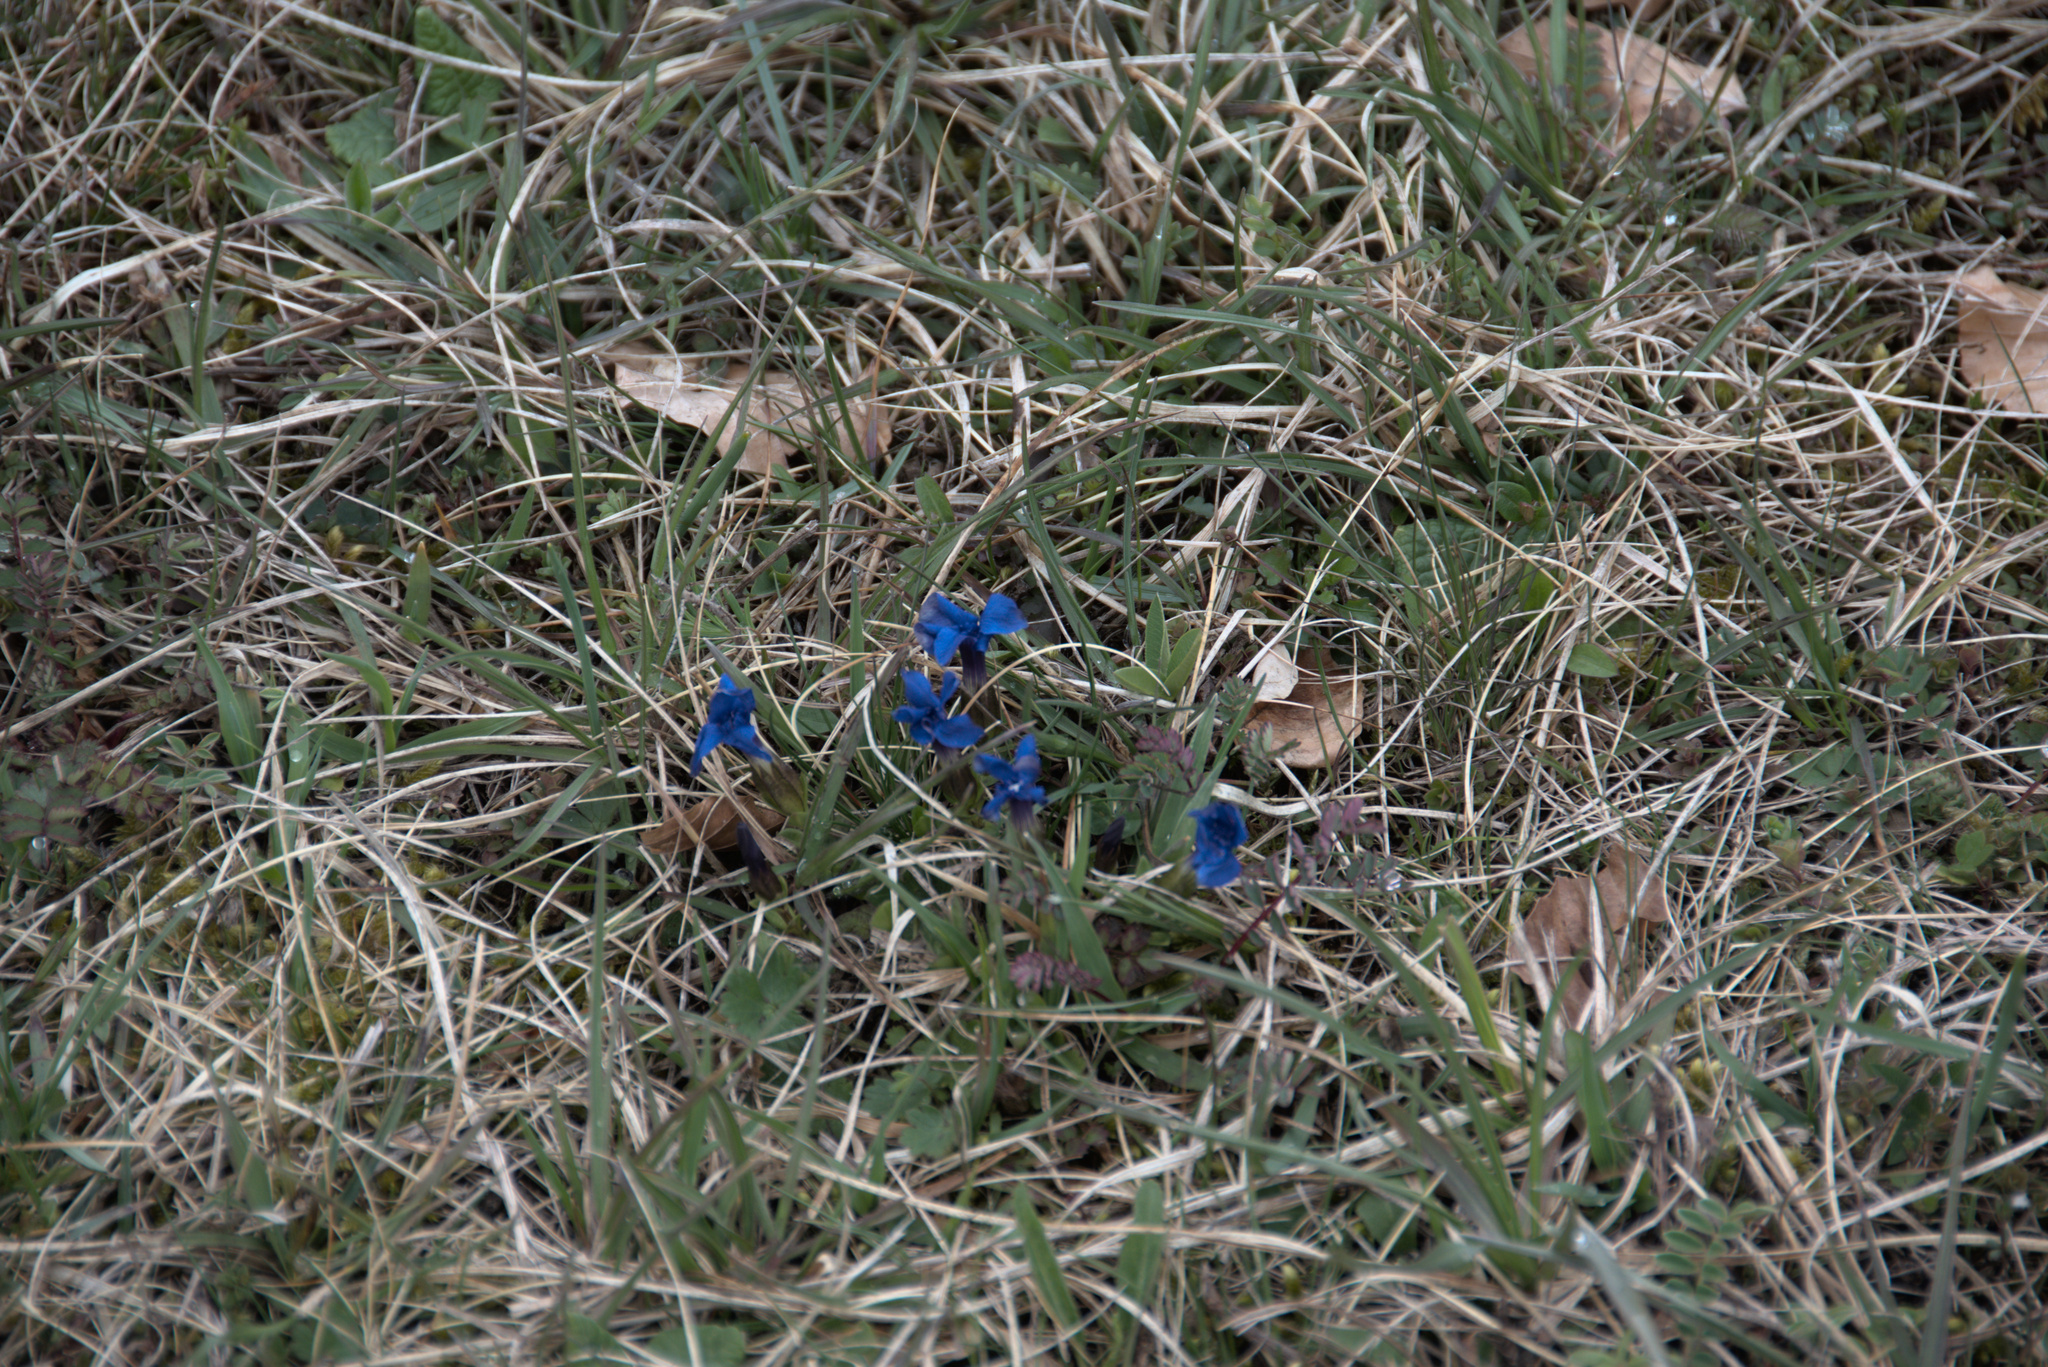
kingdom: Plantae
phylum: Tracheophyta
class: Magnoliopsida
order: Gentianales
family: Gentianaceae
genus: Gentiana
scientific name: Gentiana verna
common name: Spring gentian
